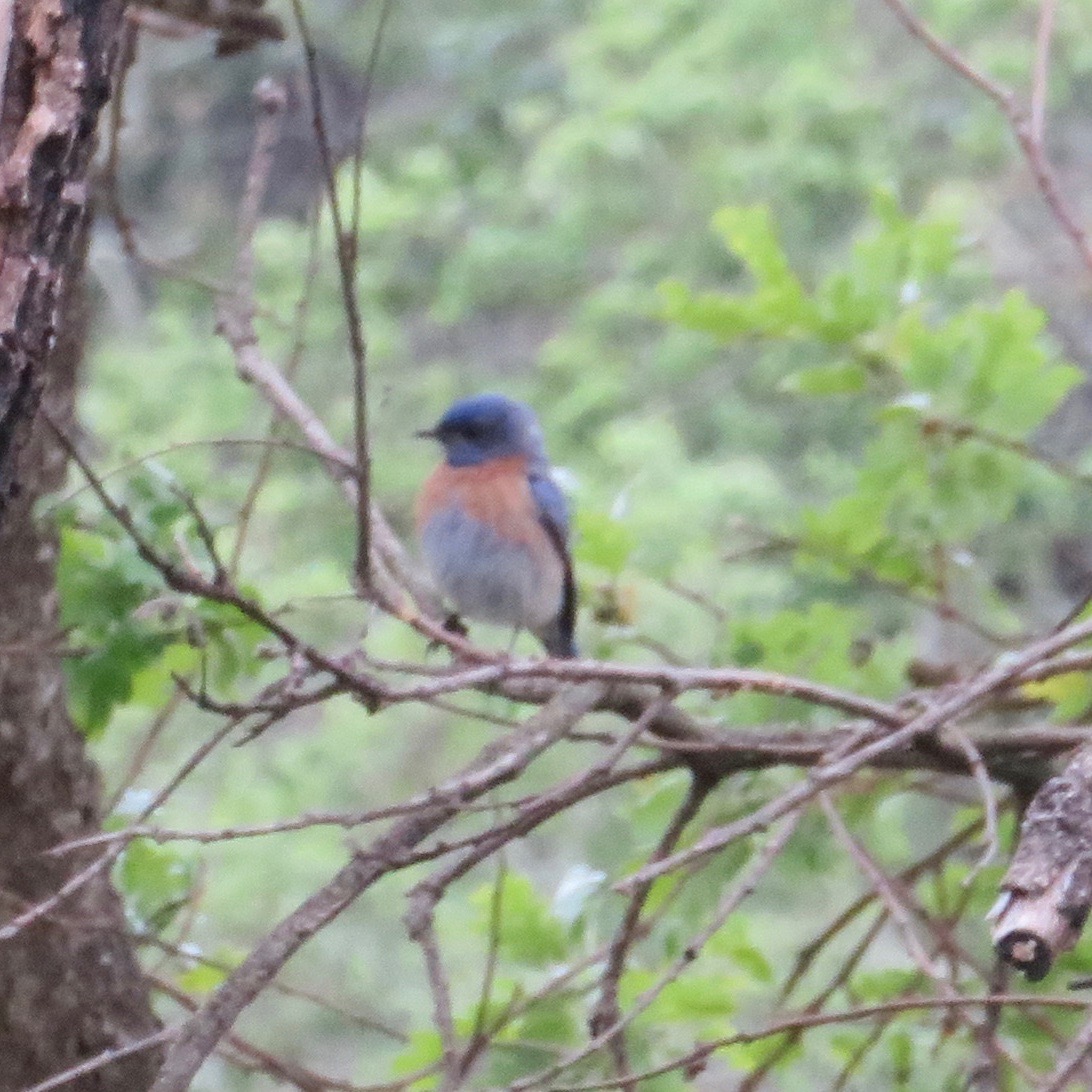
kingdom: Animalia
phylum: Chordata
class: Aves
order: Passeriformes
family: Turdidae
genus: Sialia
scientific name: Sialia mexicana
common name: Western bluebird
